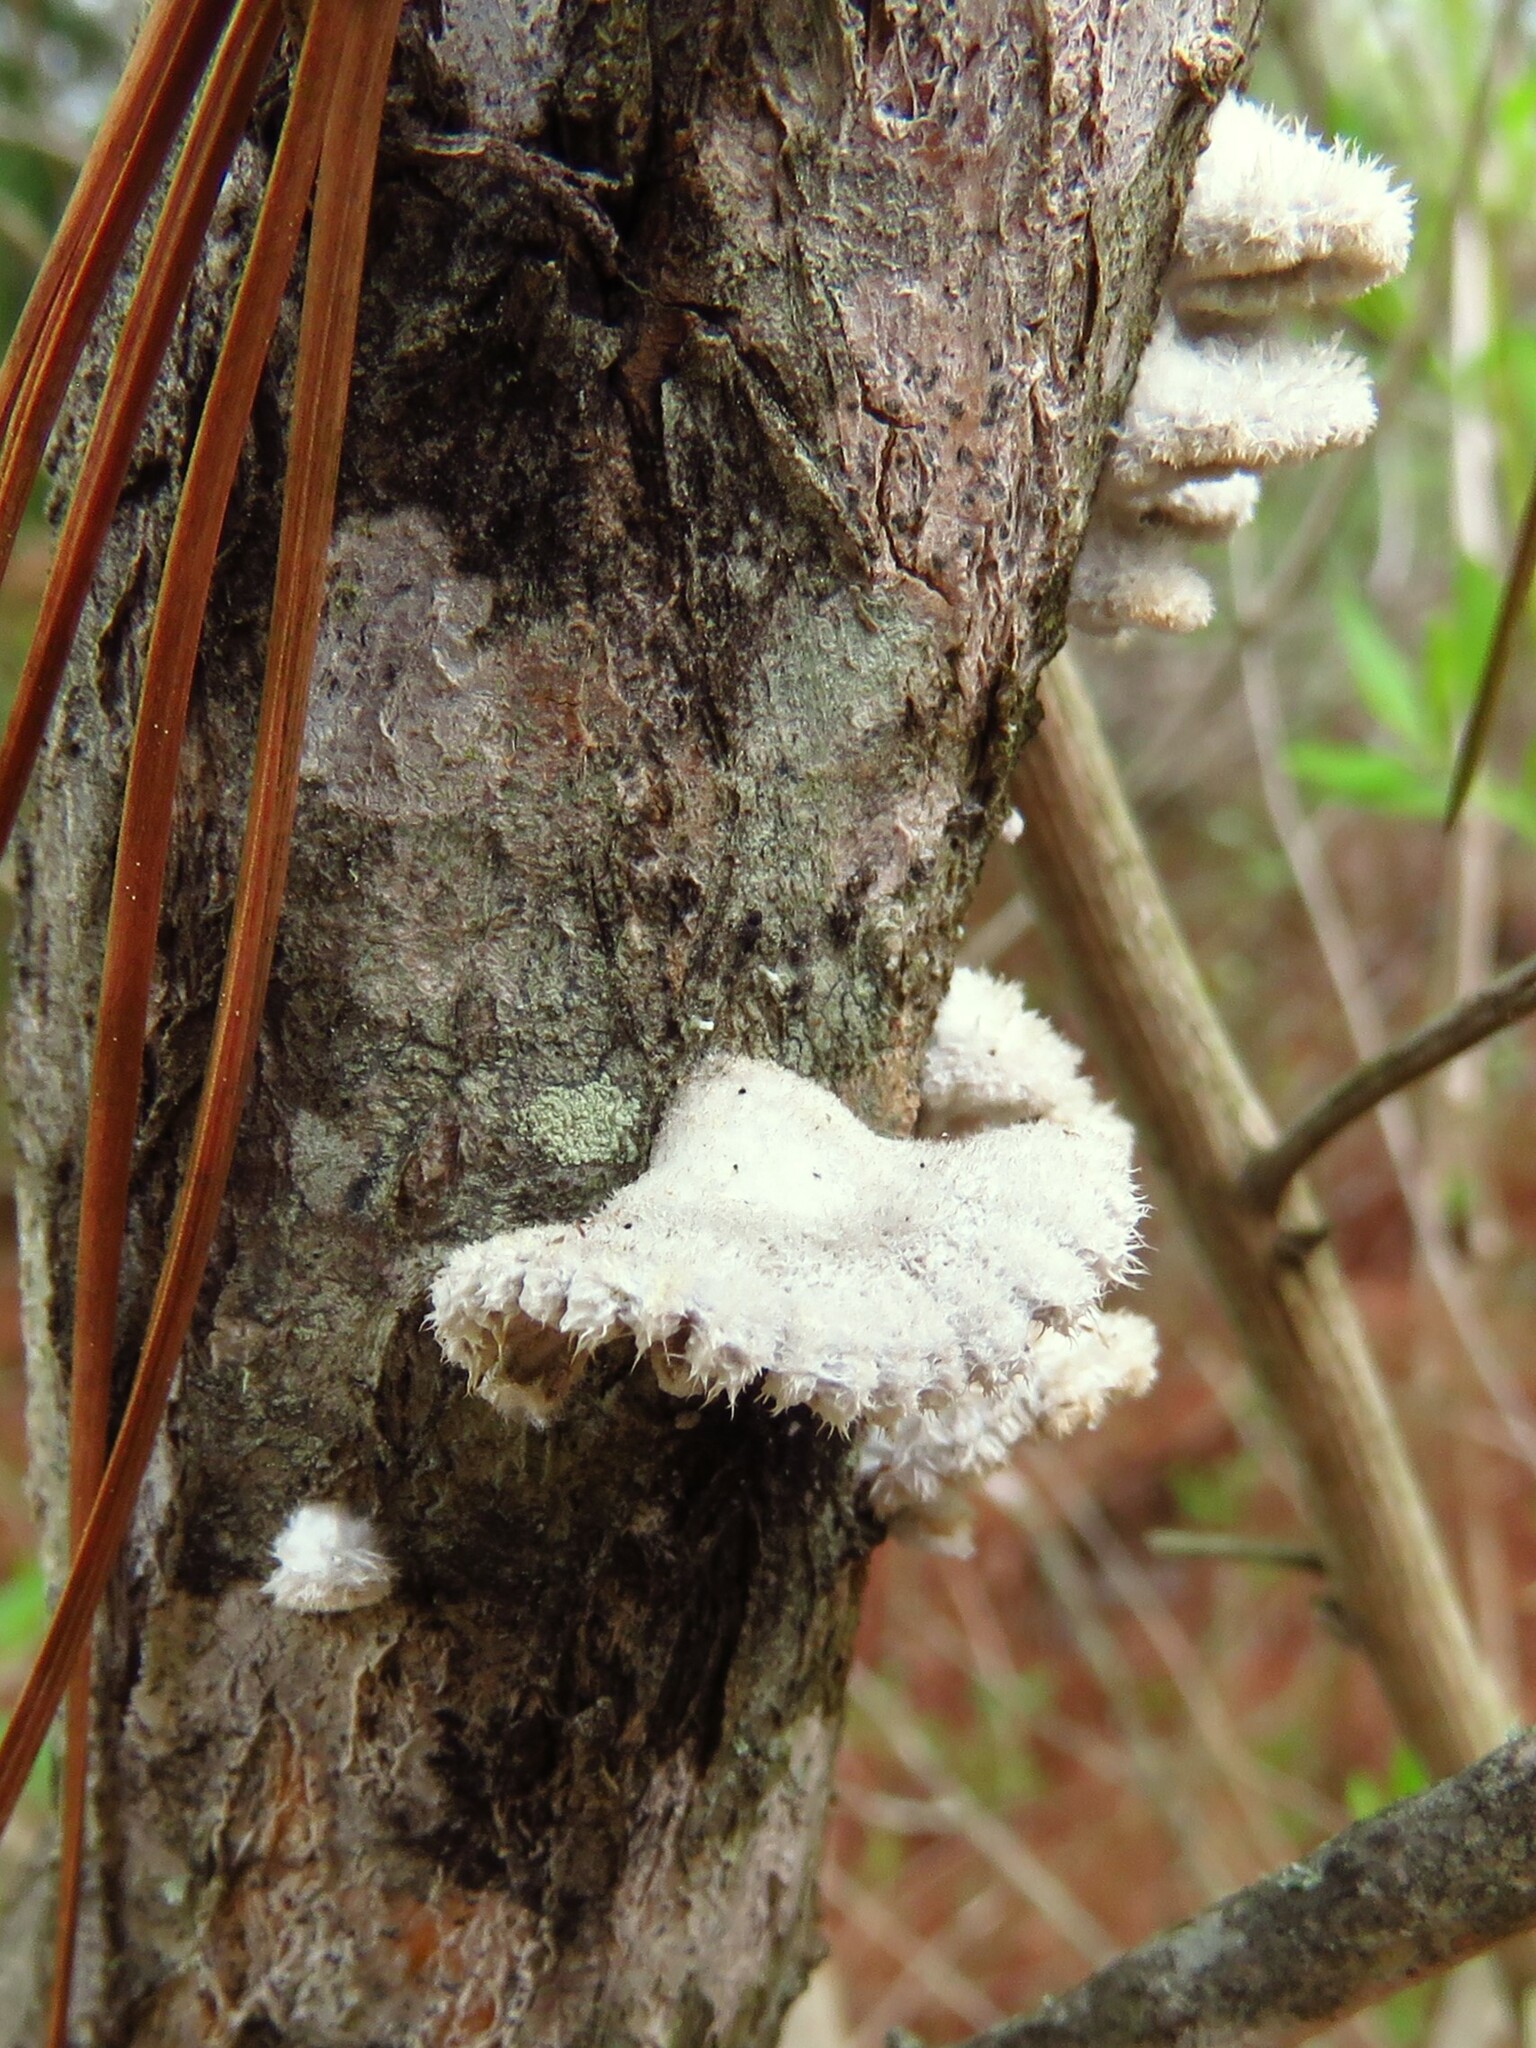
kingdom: Fungi
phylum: Basidiomycota
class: Agaricomycetes
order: Agaricales
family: Schizophyllaceae
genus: Schizophyllum
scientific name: Schizophyllum commune
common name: Common porecrust
